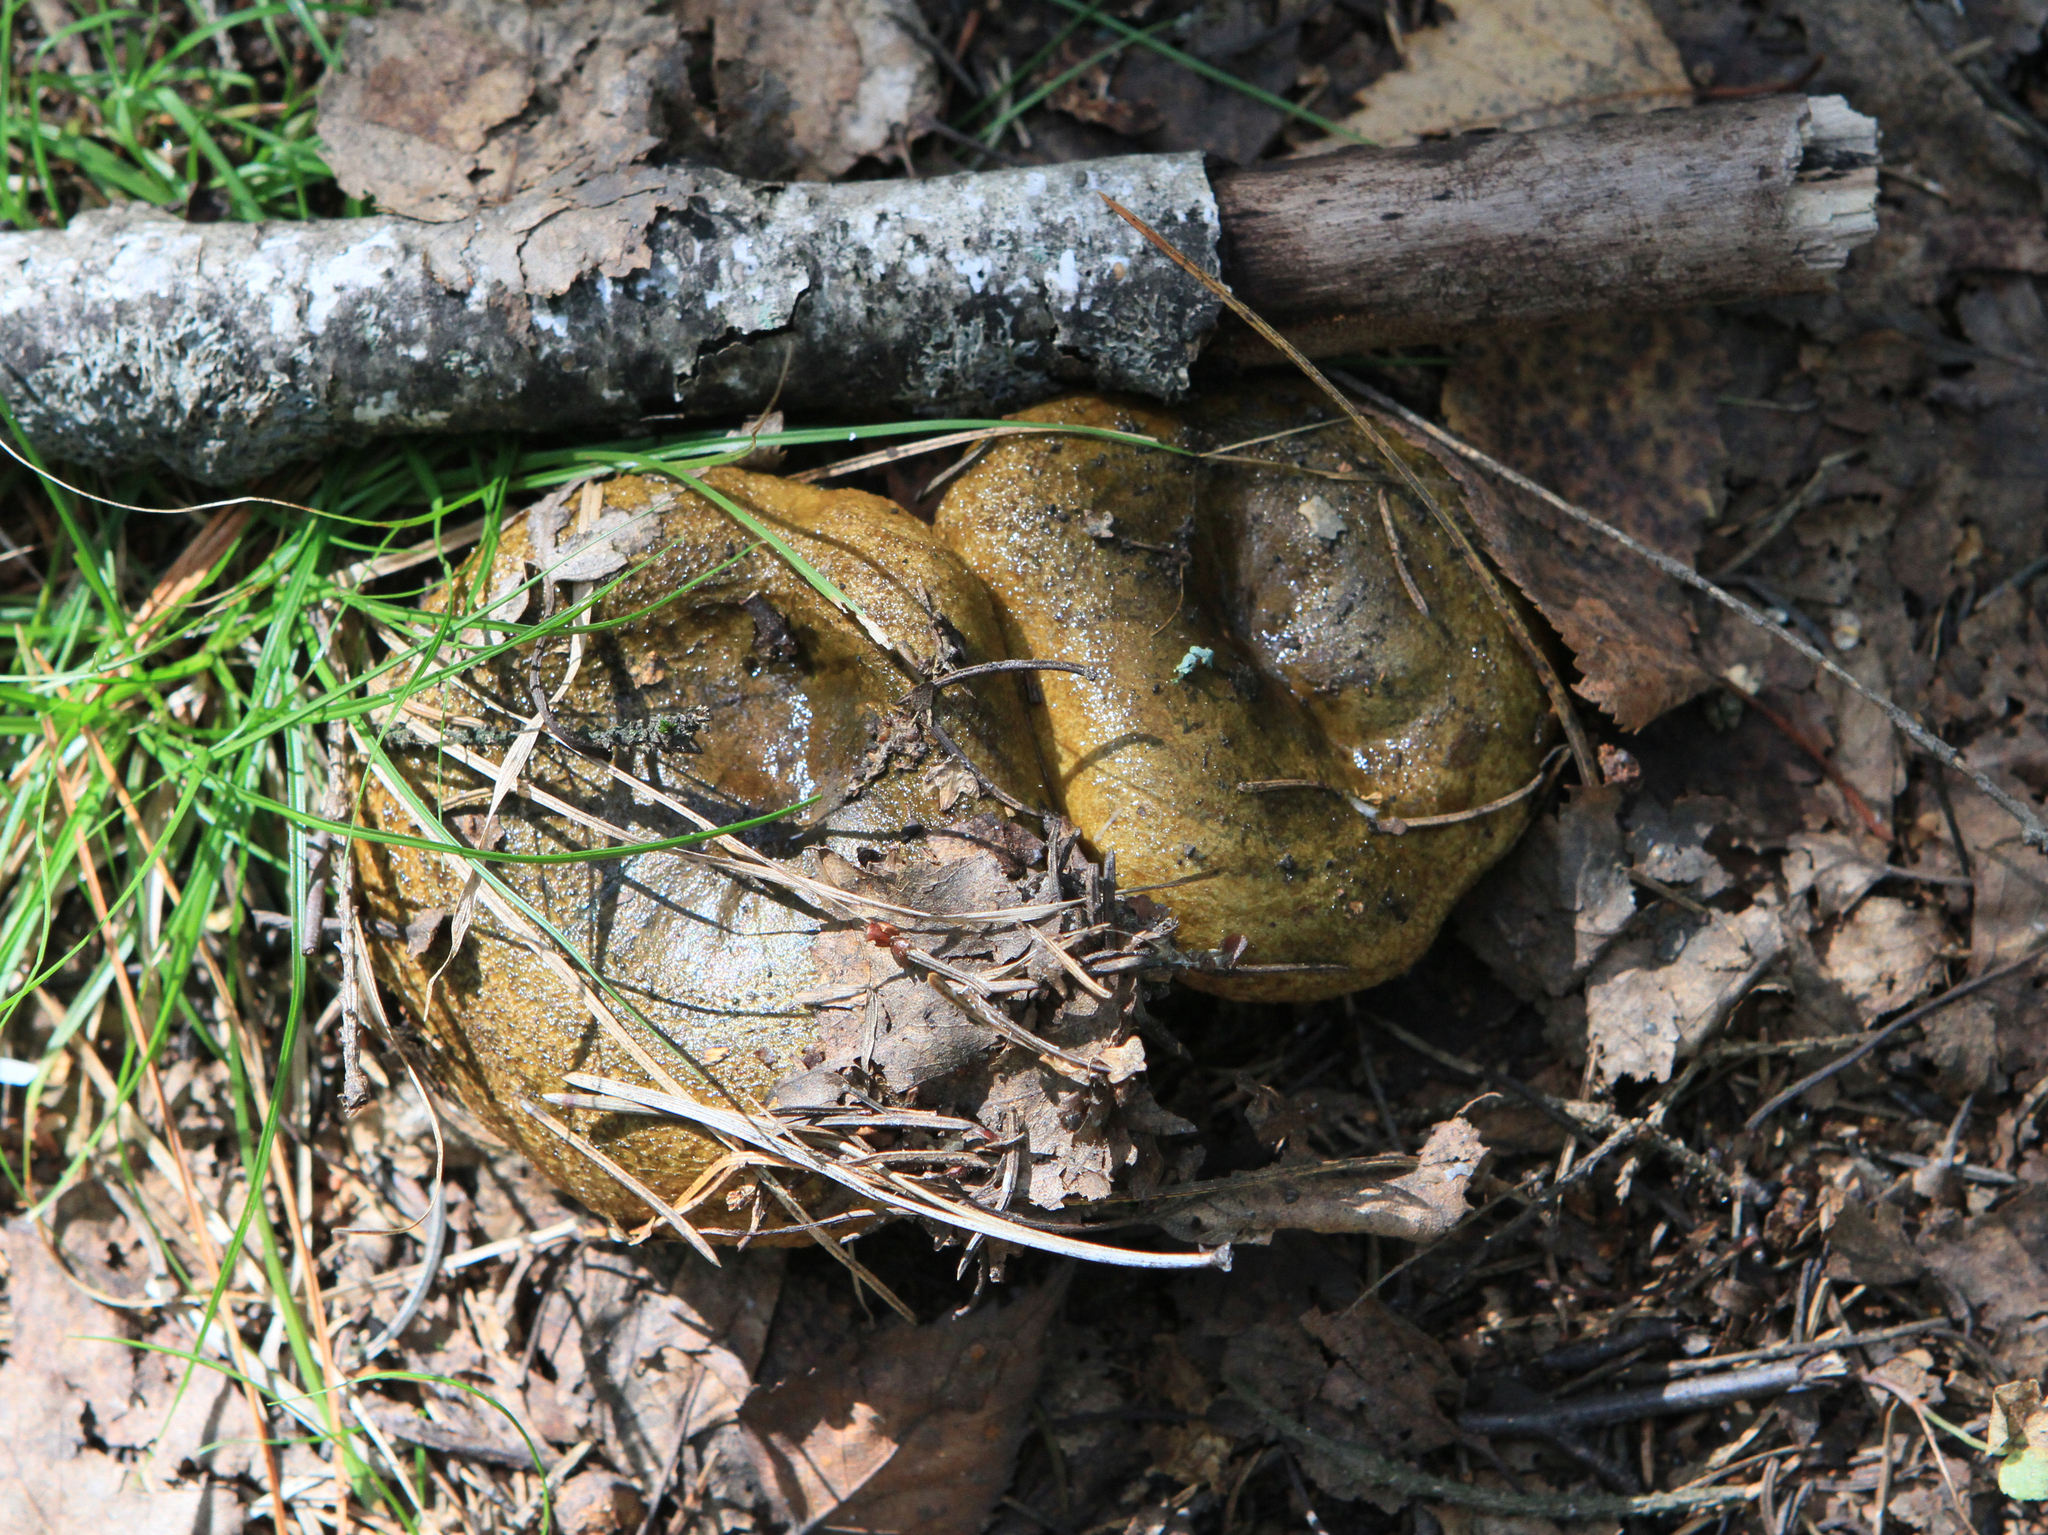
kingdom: Fungi
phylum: Basidiomycota
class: Agaricomycetes
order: Russulales
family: Russulaceae
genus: Lactarius
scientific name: Lactarius turpis
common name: Ugly milk-cap
